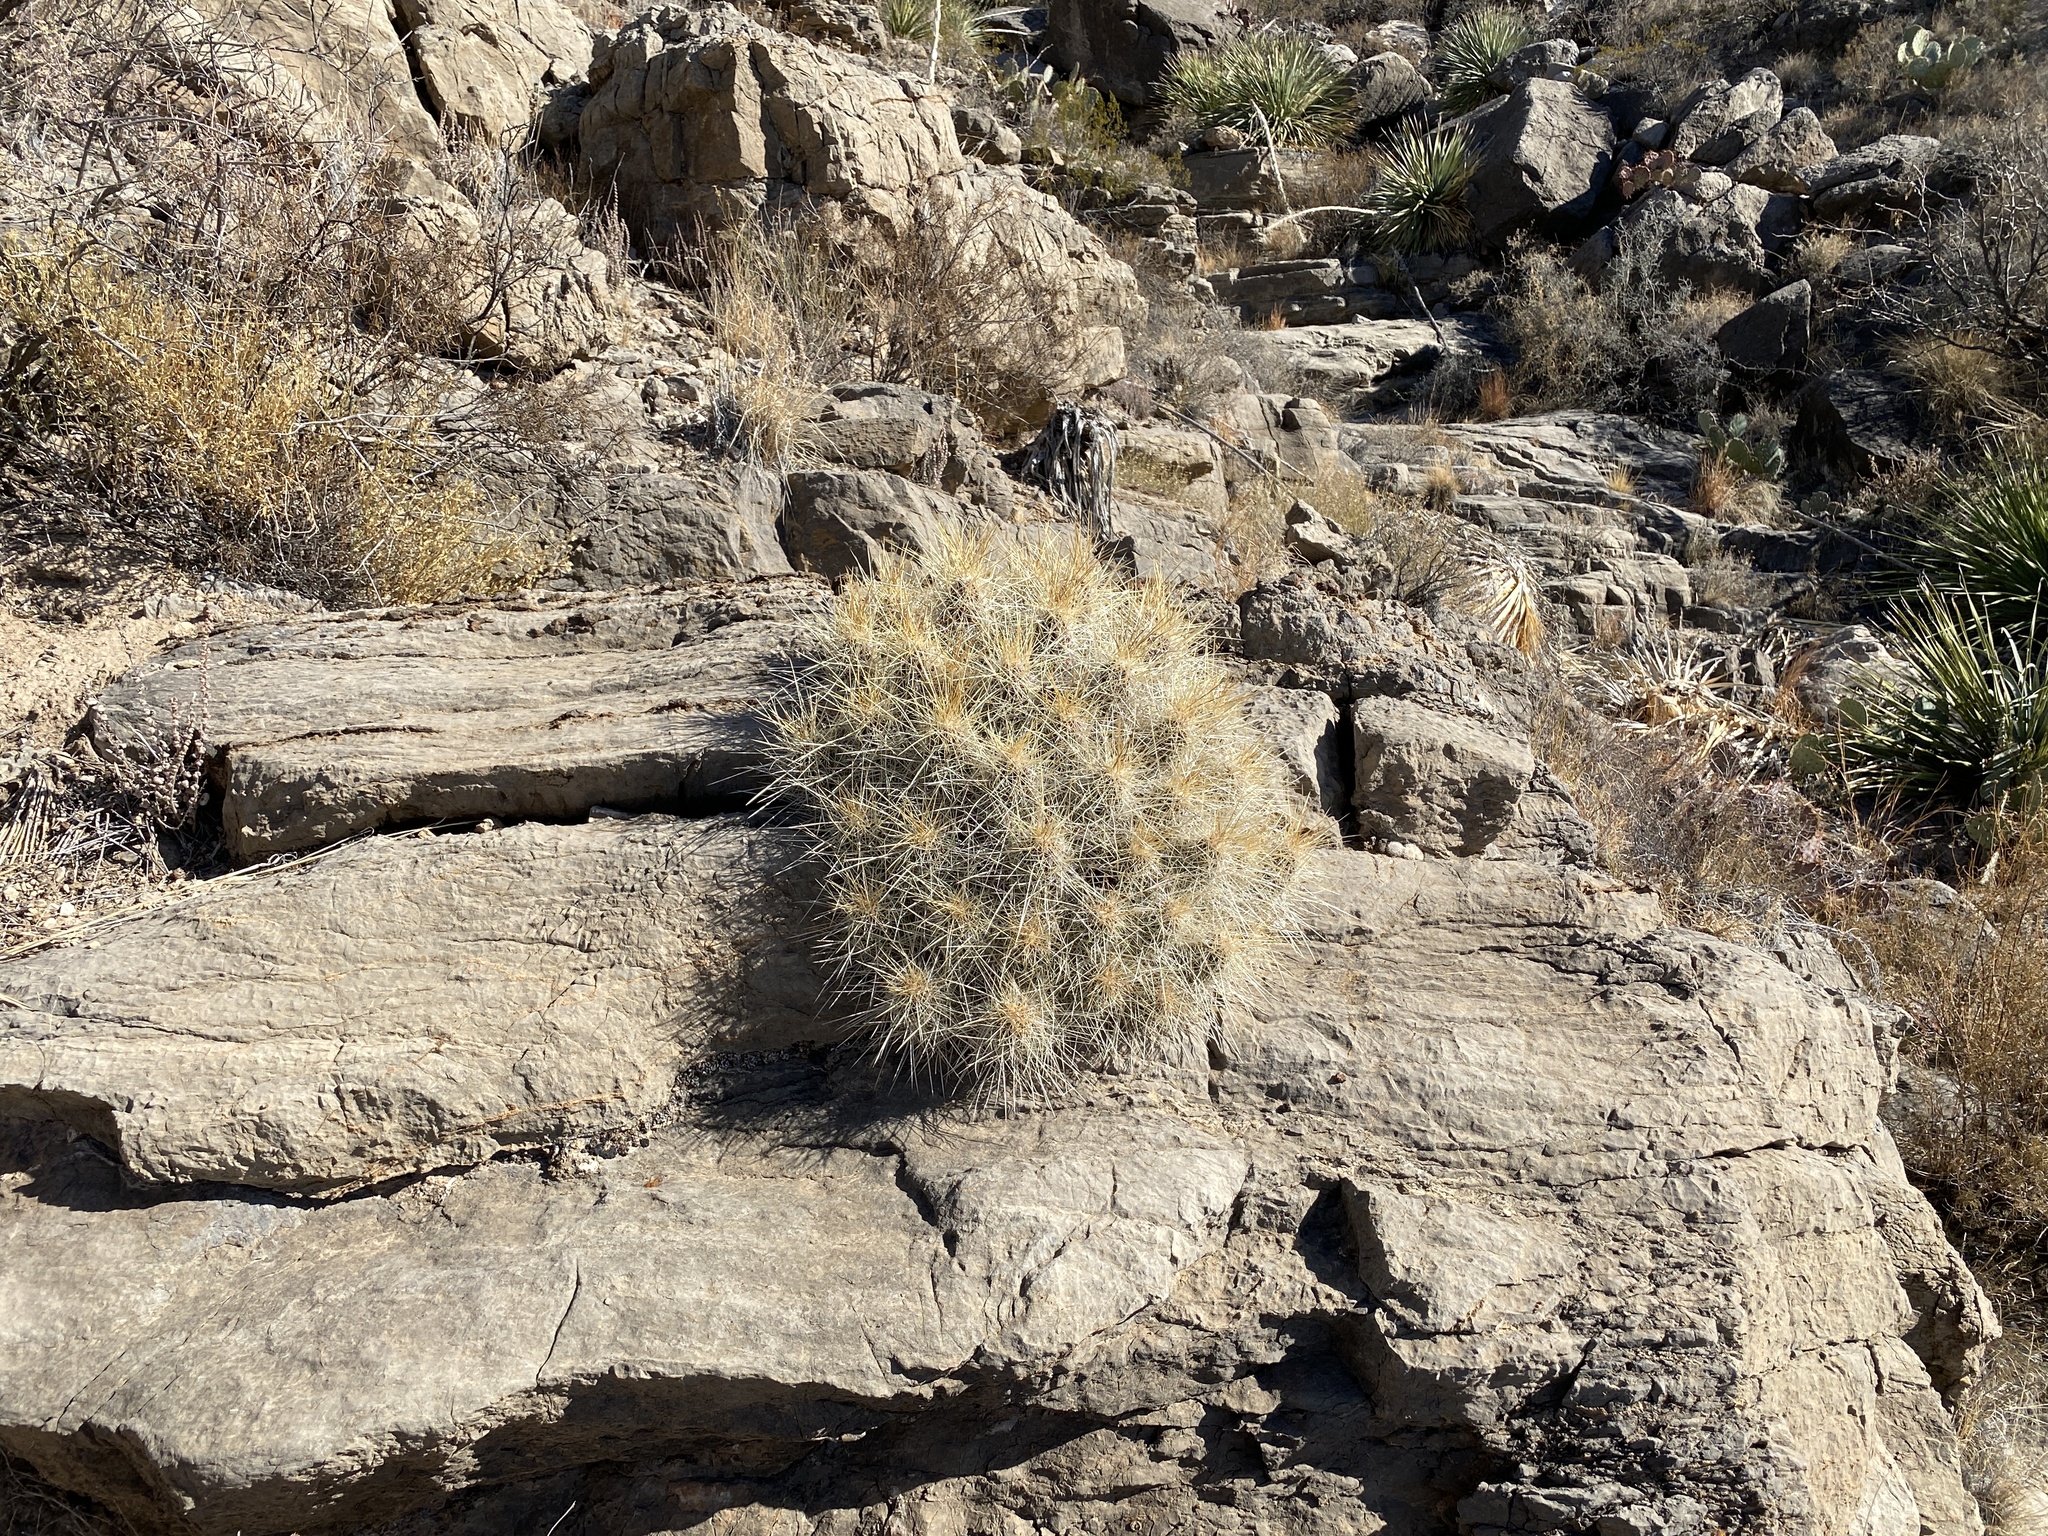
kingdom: Plantae
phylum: Tracheophyta
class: Magnoliopsida
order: Caryophyllales
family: Cactaceae
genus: Echinocereus
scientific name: Echinocereus stramineus
